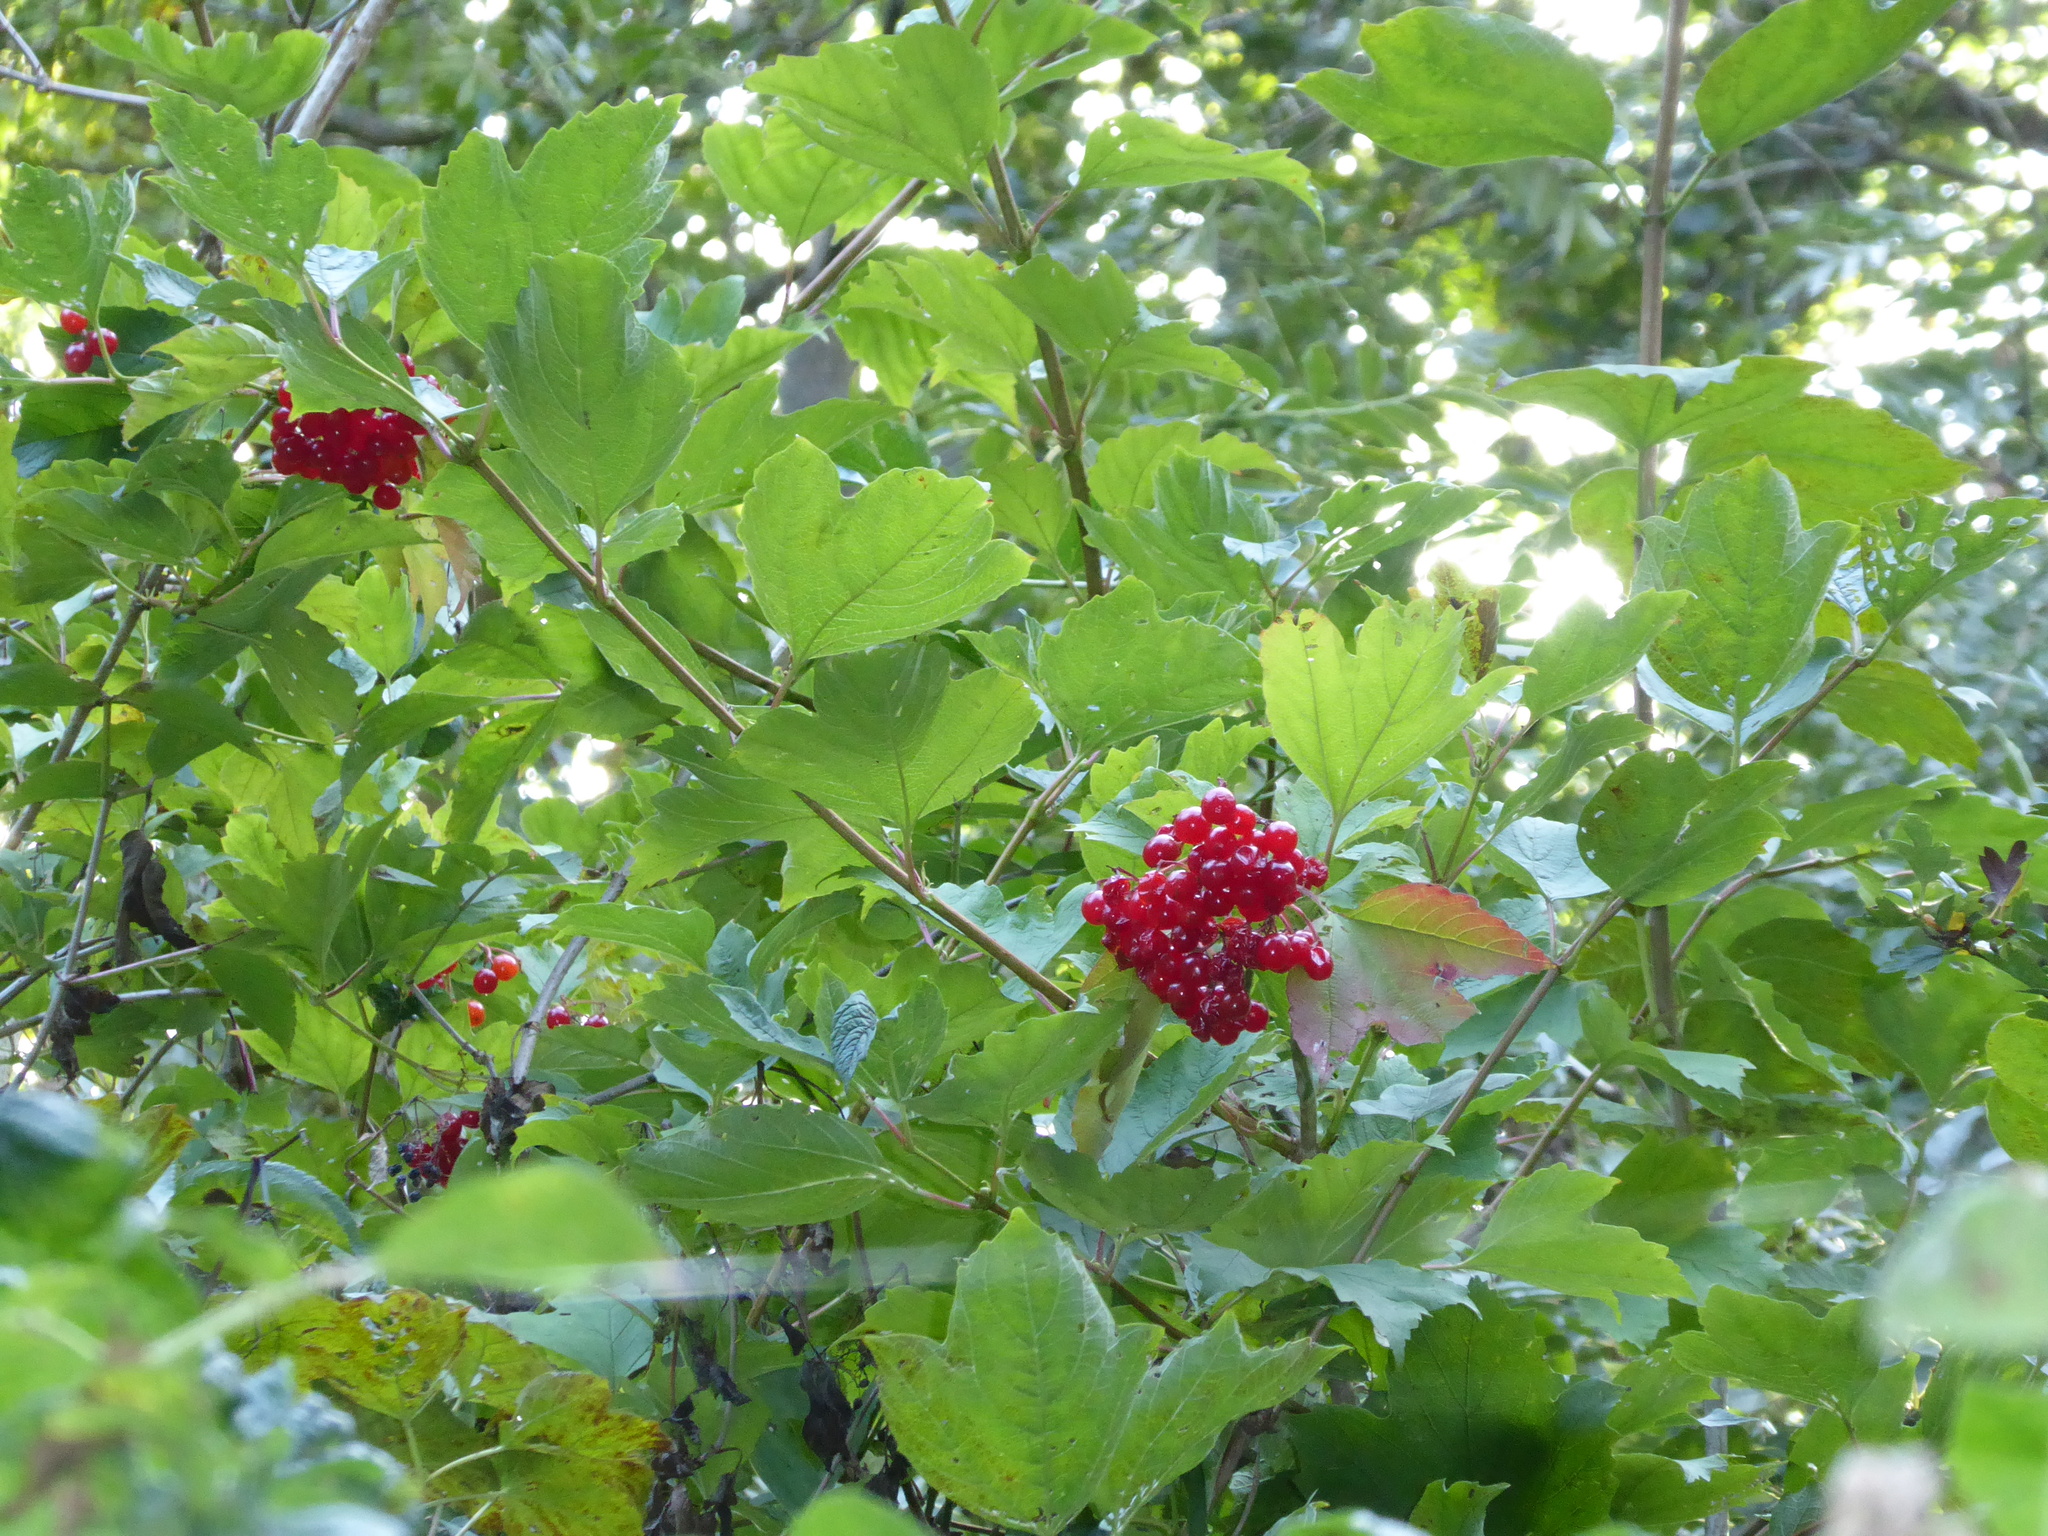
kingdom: Plantae
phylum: Tracheophyta
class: Magnoliopsida
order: Dipsacales
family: Viburnaceae
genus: Viburnum
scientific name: Viburnum opulus
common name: Guelder-rose
